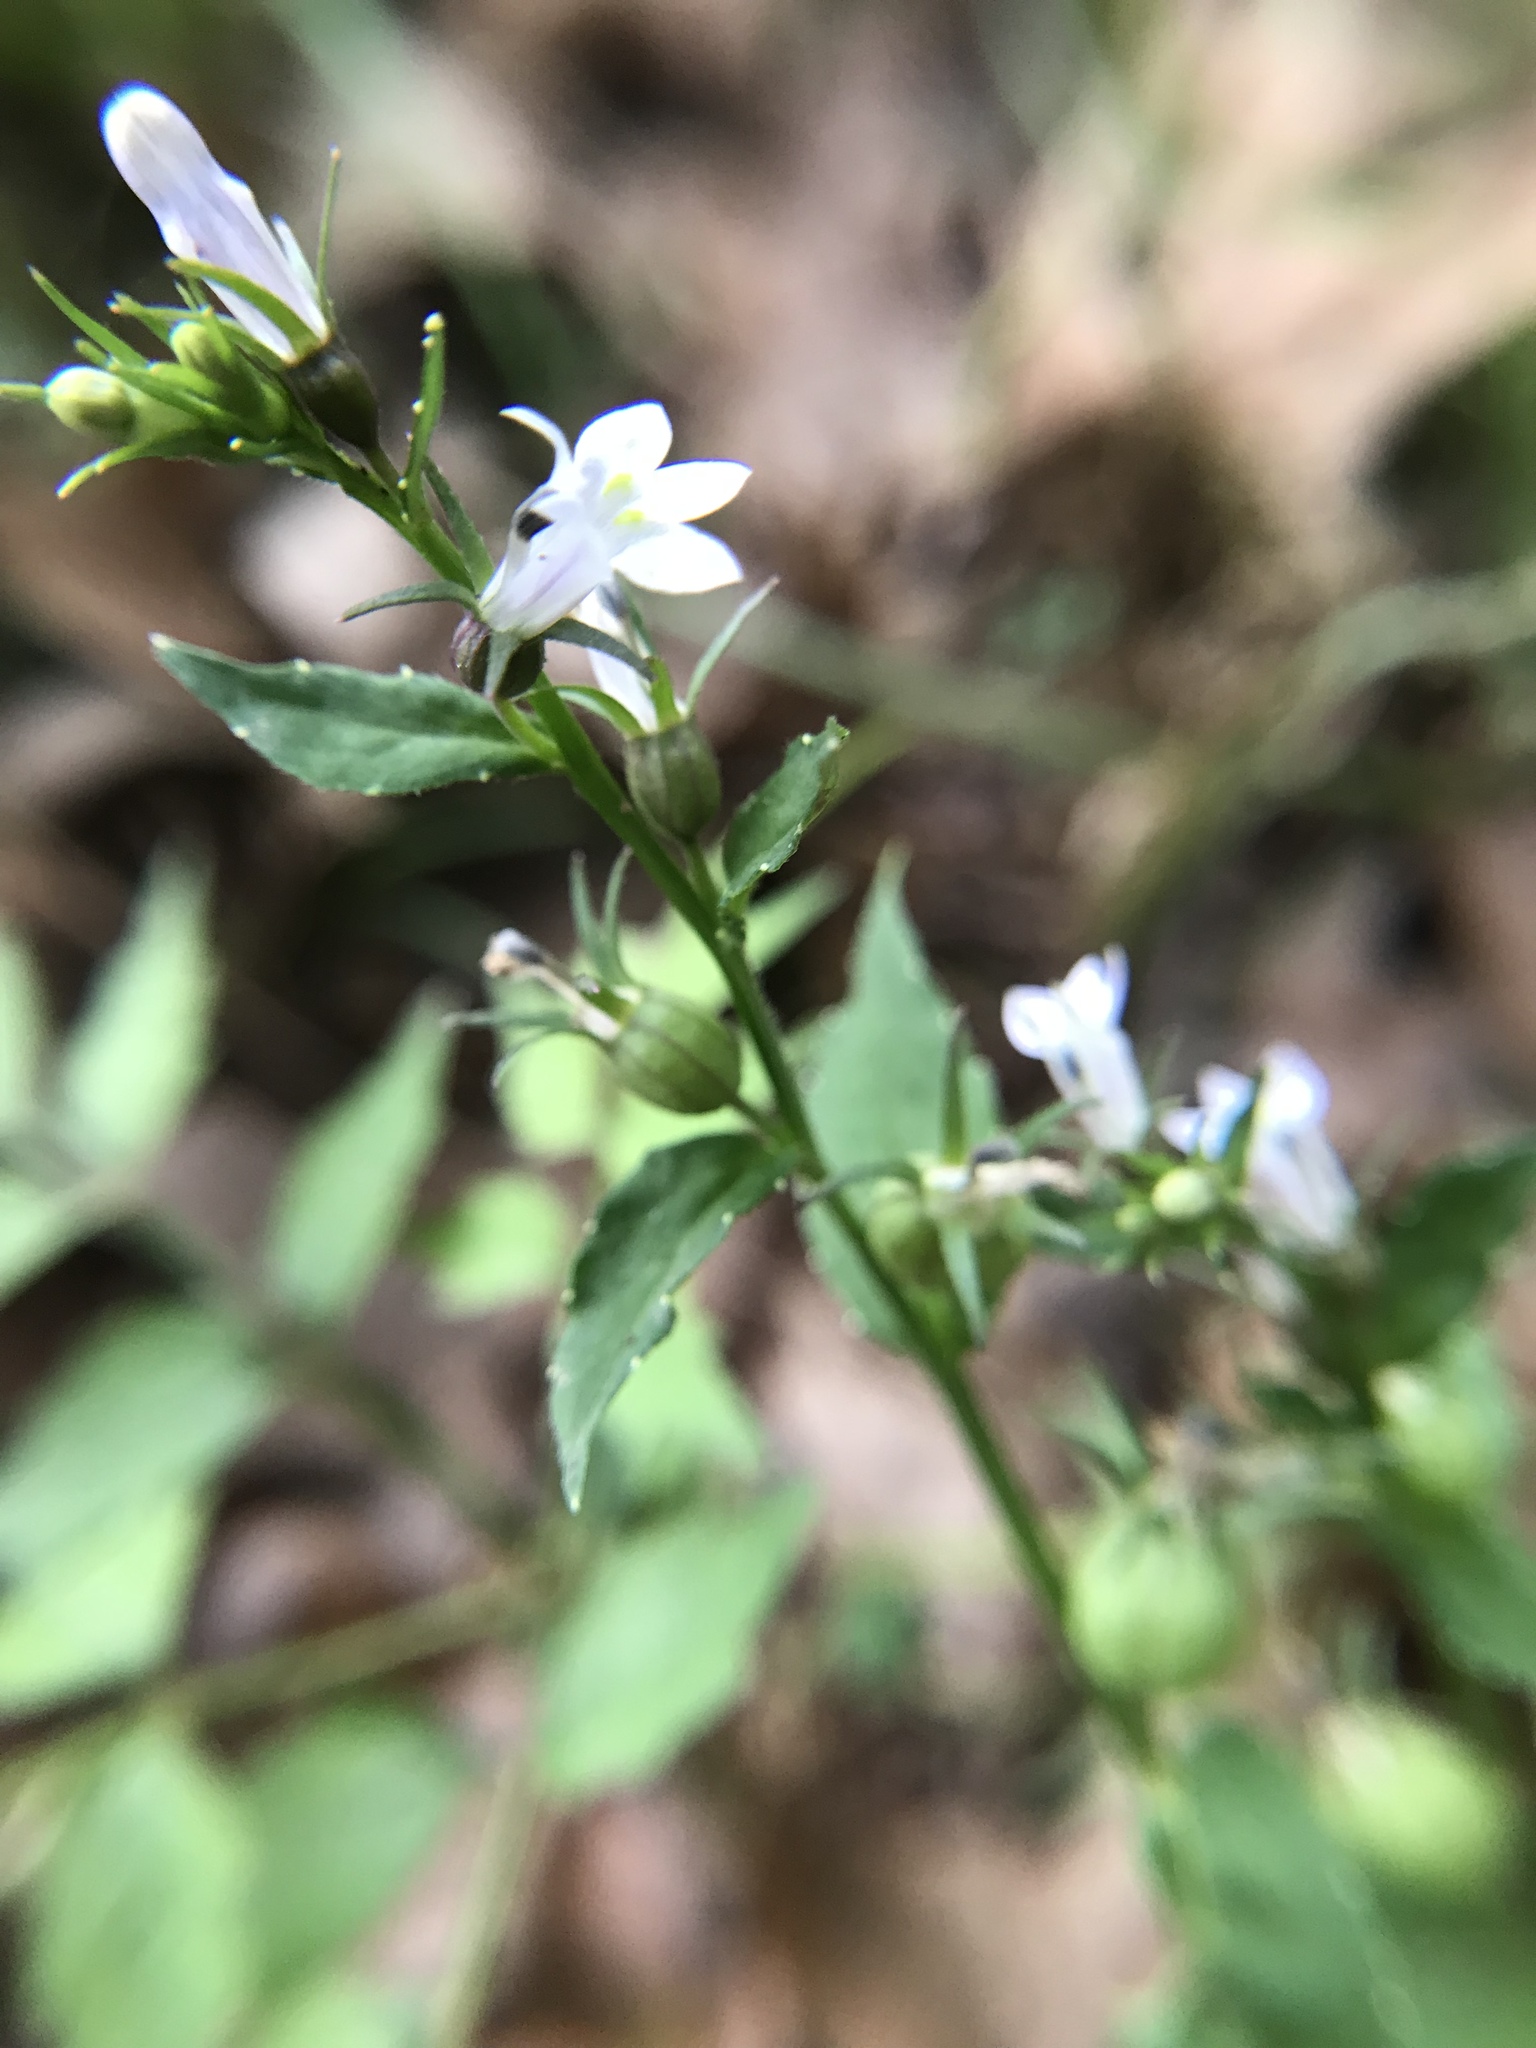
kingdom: Plantae
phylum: Tracheophyta
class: Magnoliopsida
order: Asterales
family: Campanulaceae
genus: Lobelia
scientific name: Lobelia inflata
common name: Indian tobacco
